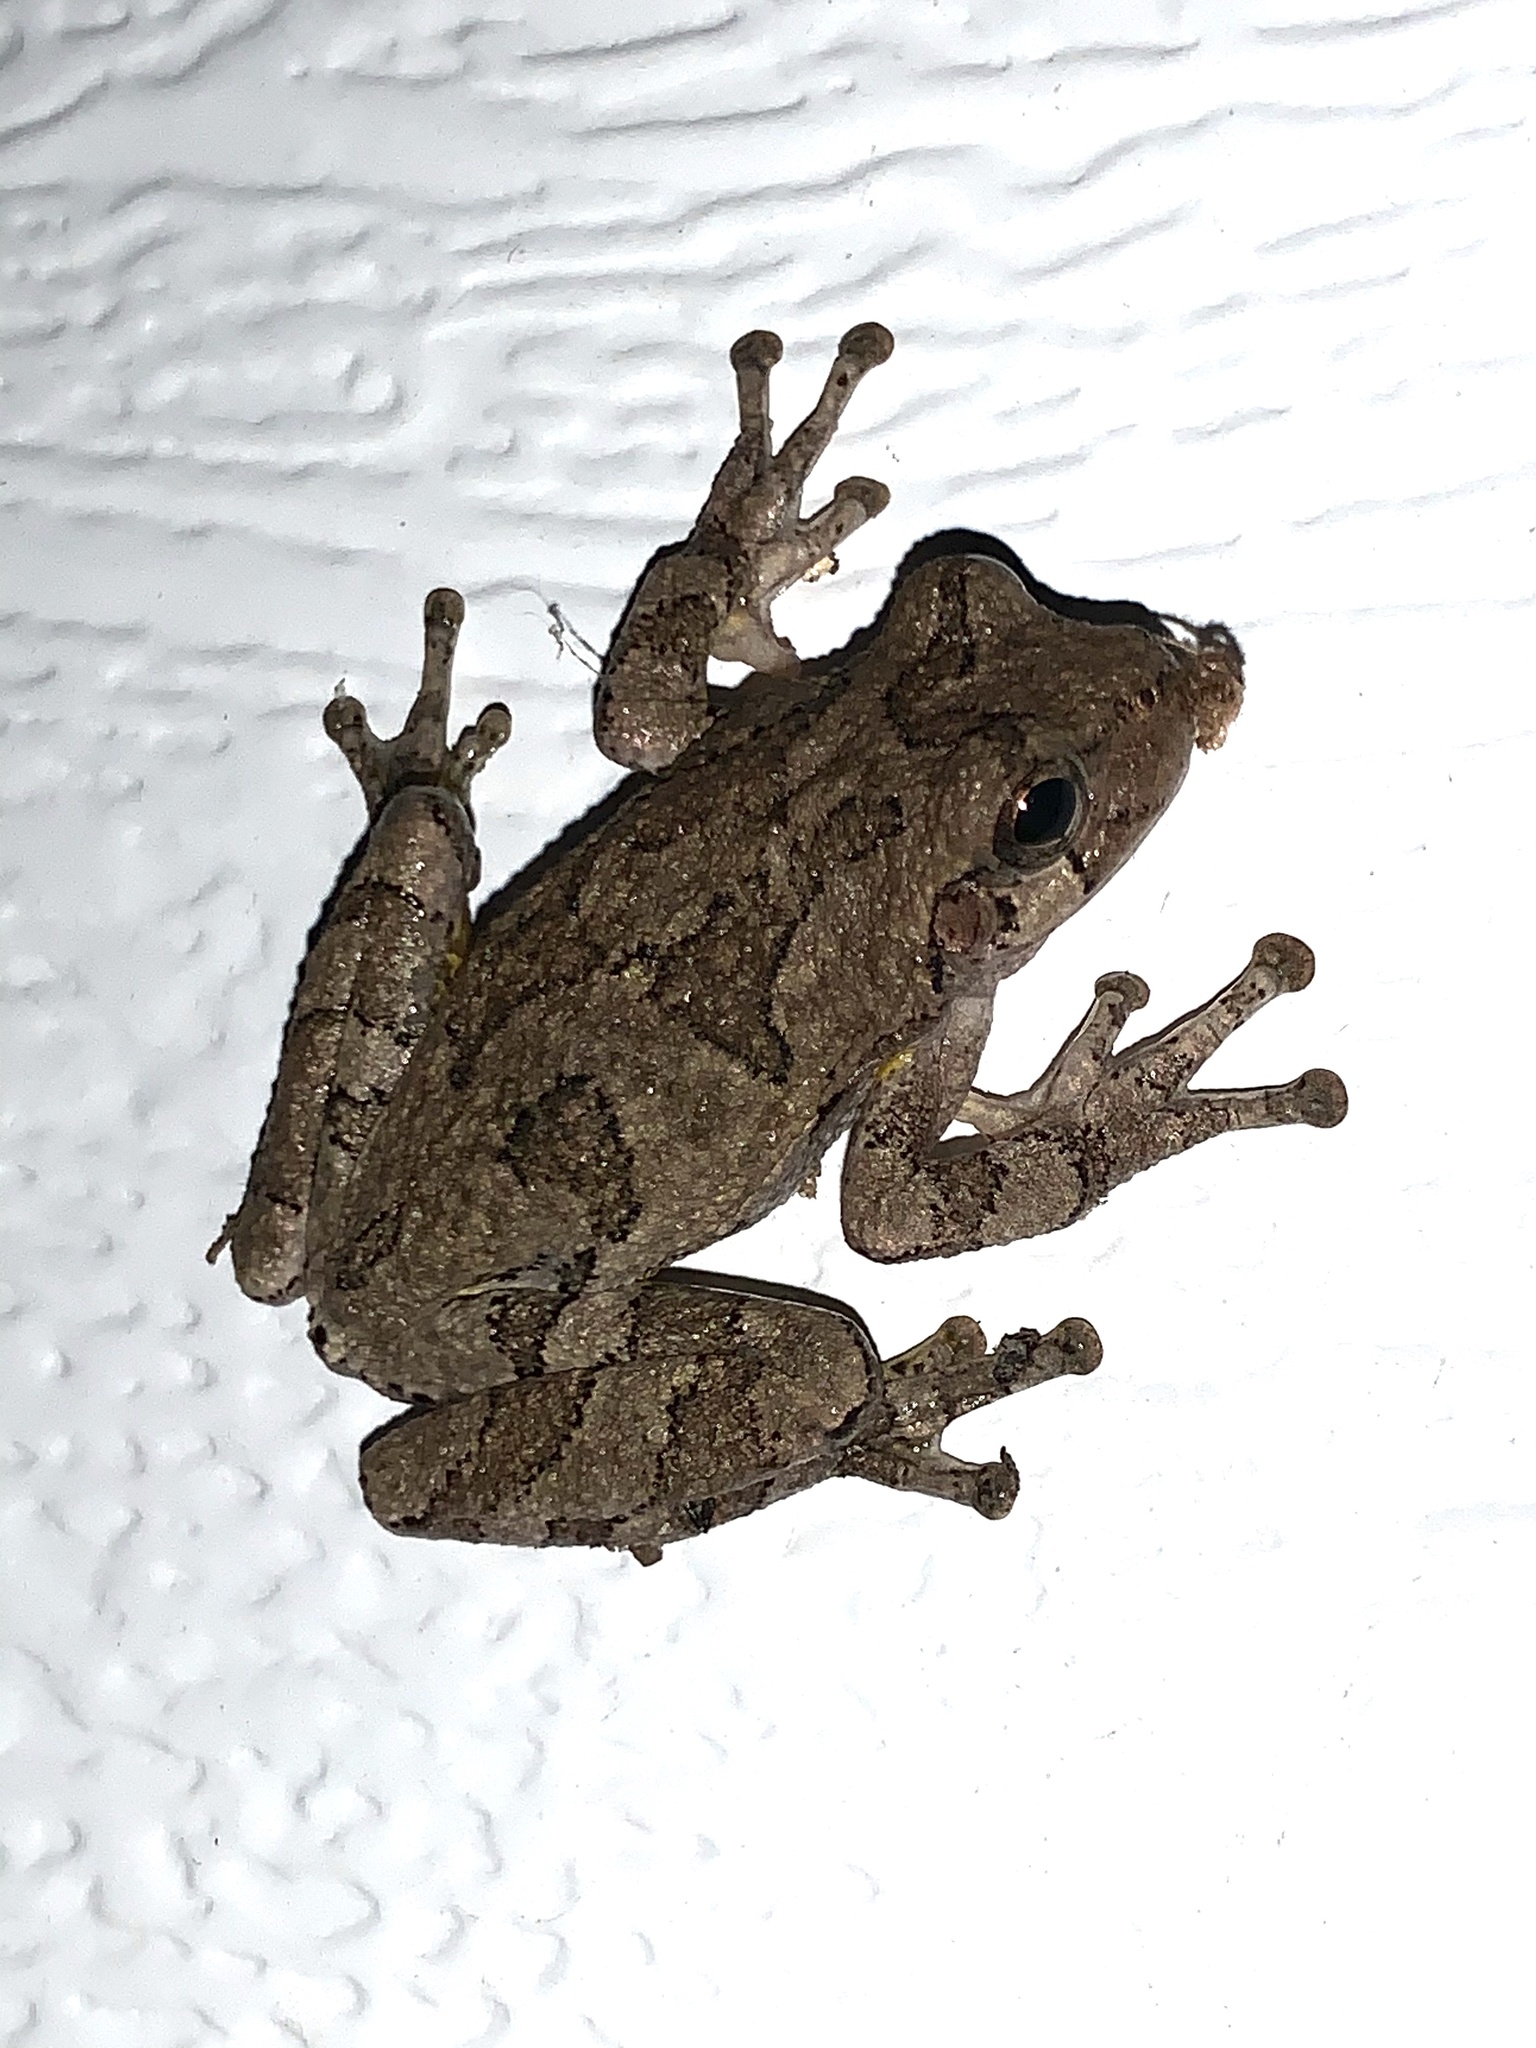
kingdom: Animalia
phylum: Chordata
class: Amphibia
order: Anura
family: Hylidae
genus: Hyla
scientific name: Hyla
